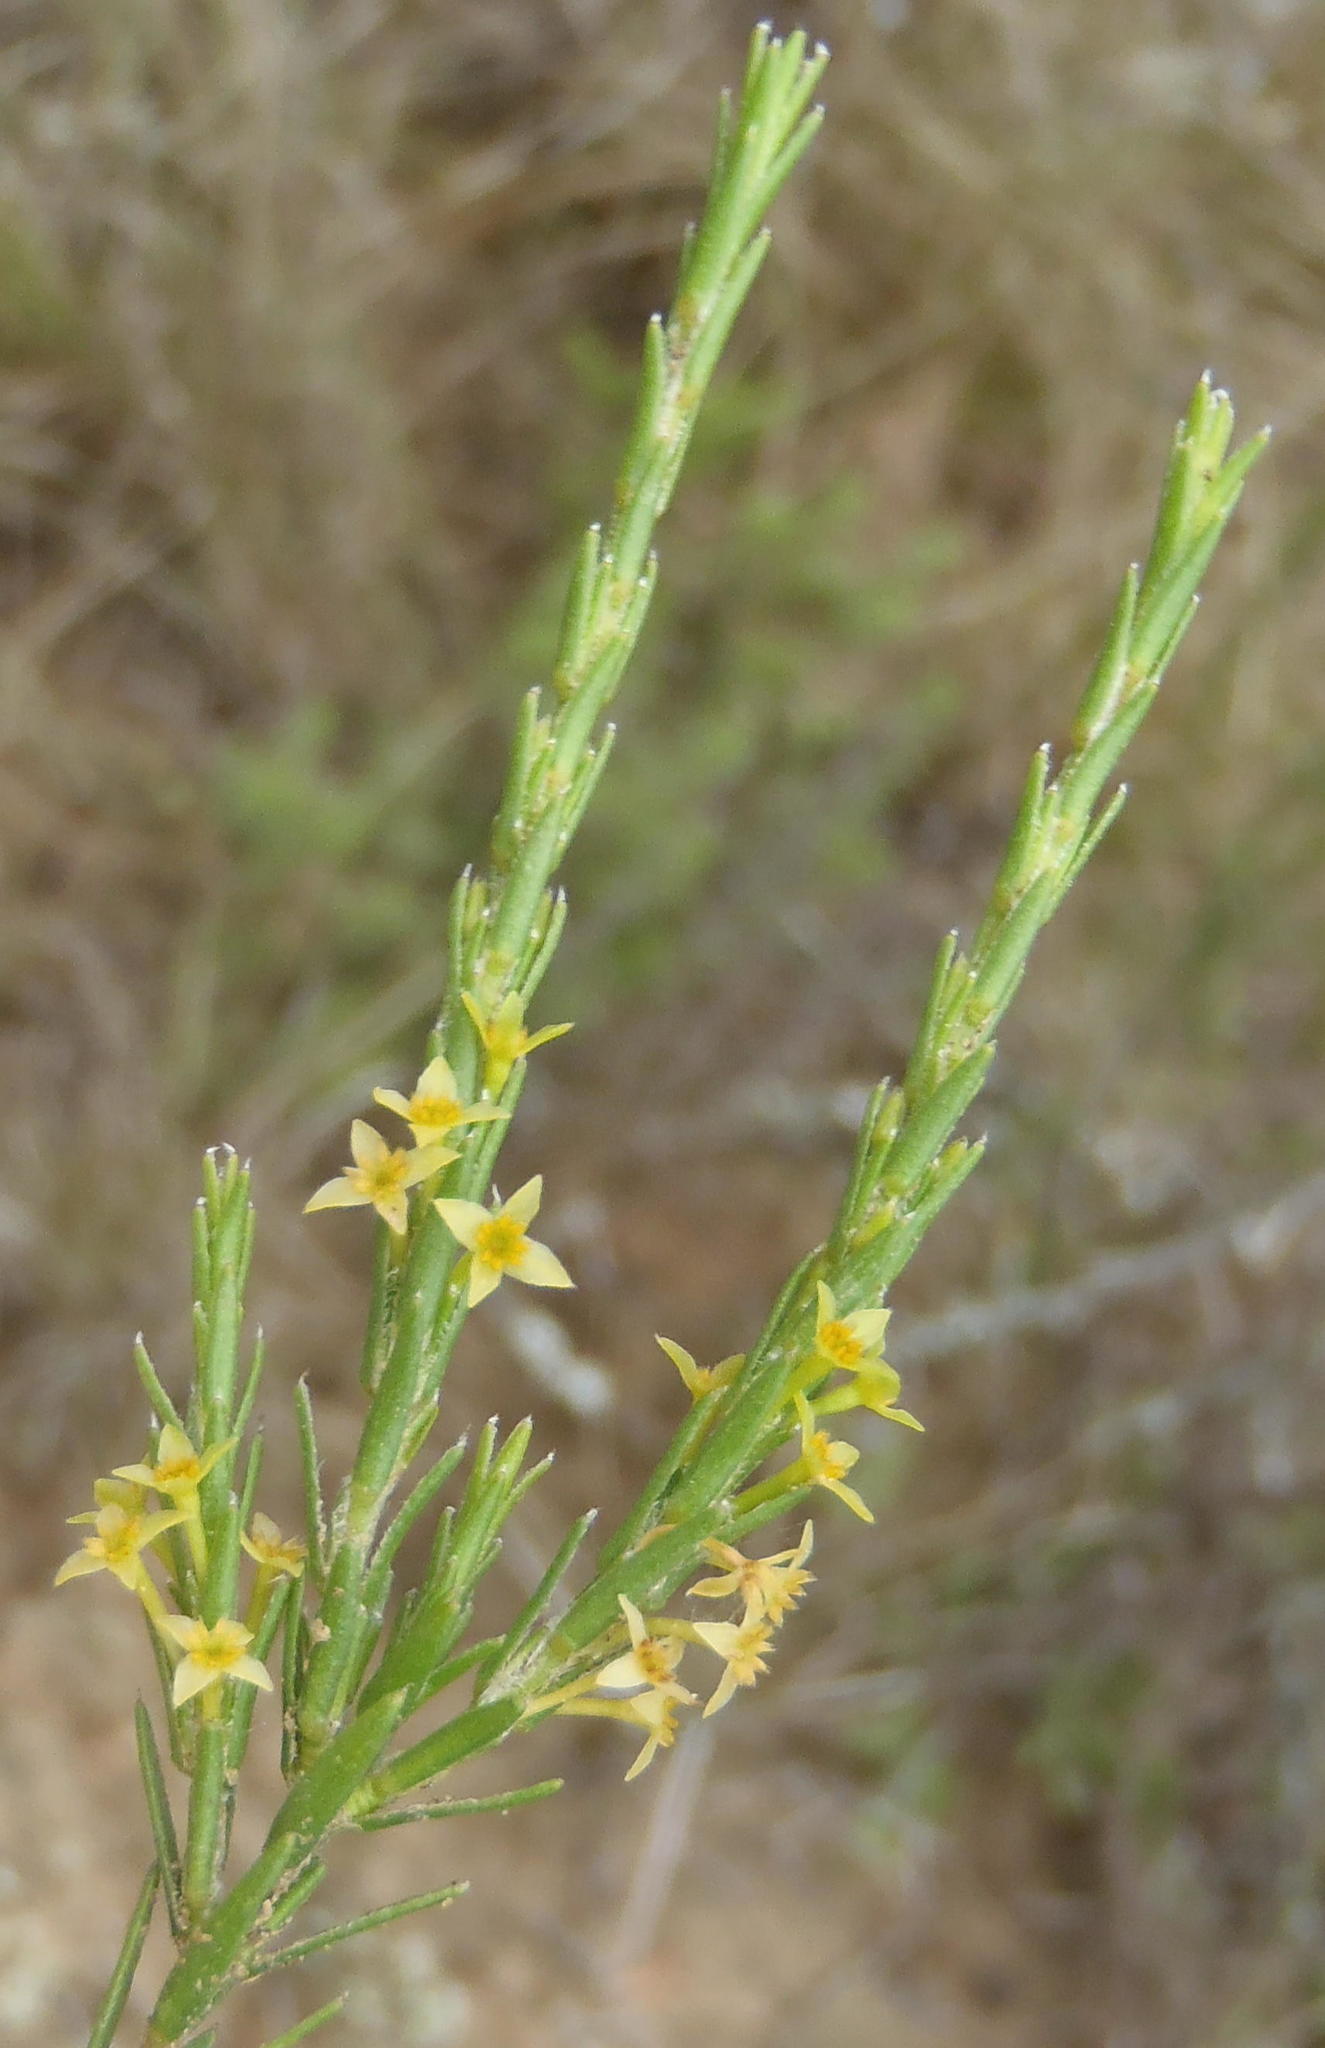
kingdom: Plantae
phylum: Tracheophyta
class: Magnoliopsida
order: Malvales
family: Thymelaeaceae
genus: Struthiola
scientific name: Struthiola parviflora
